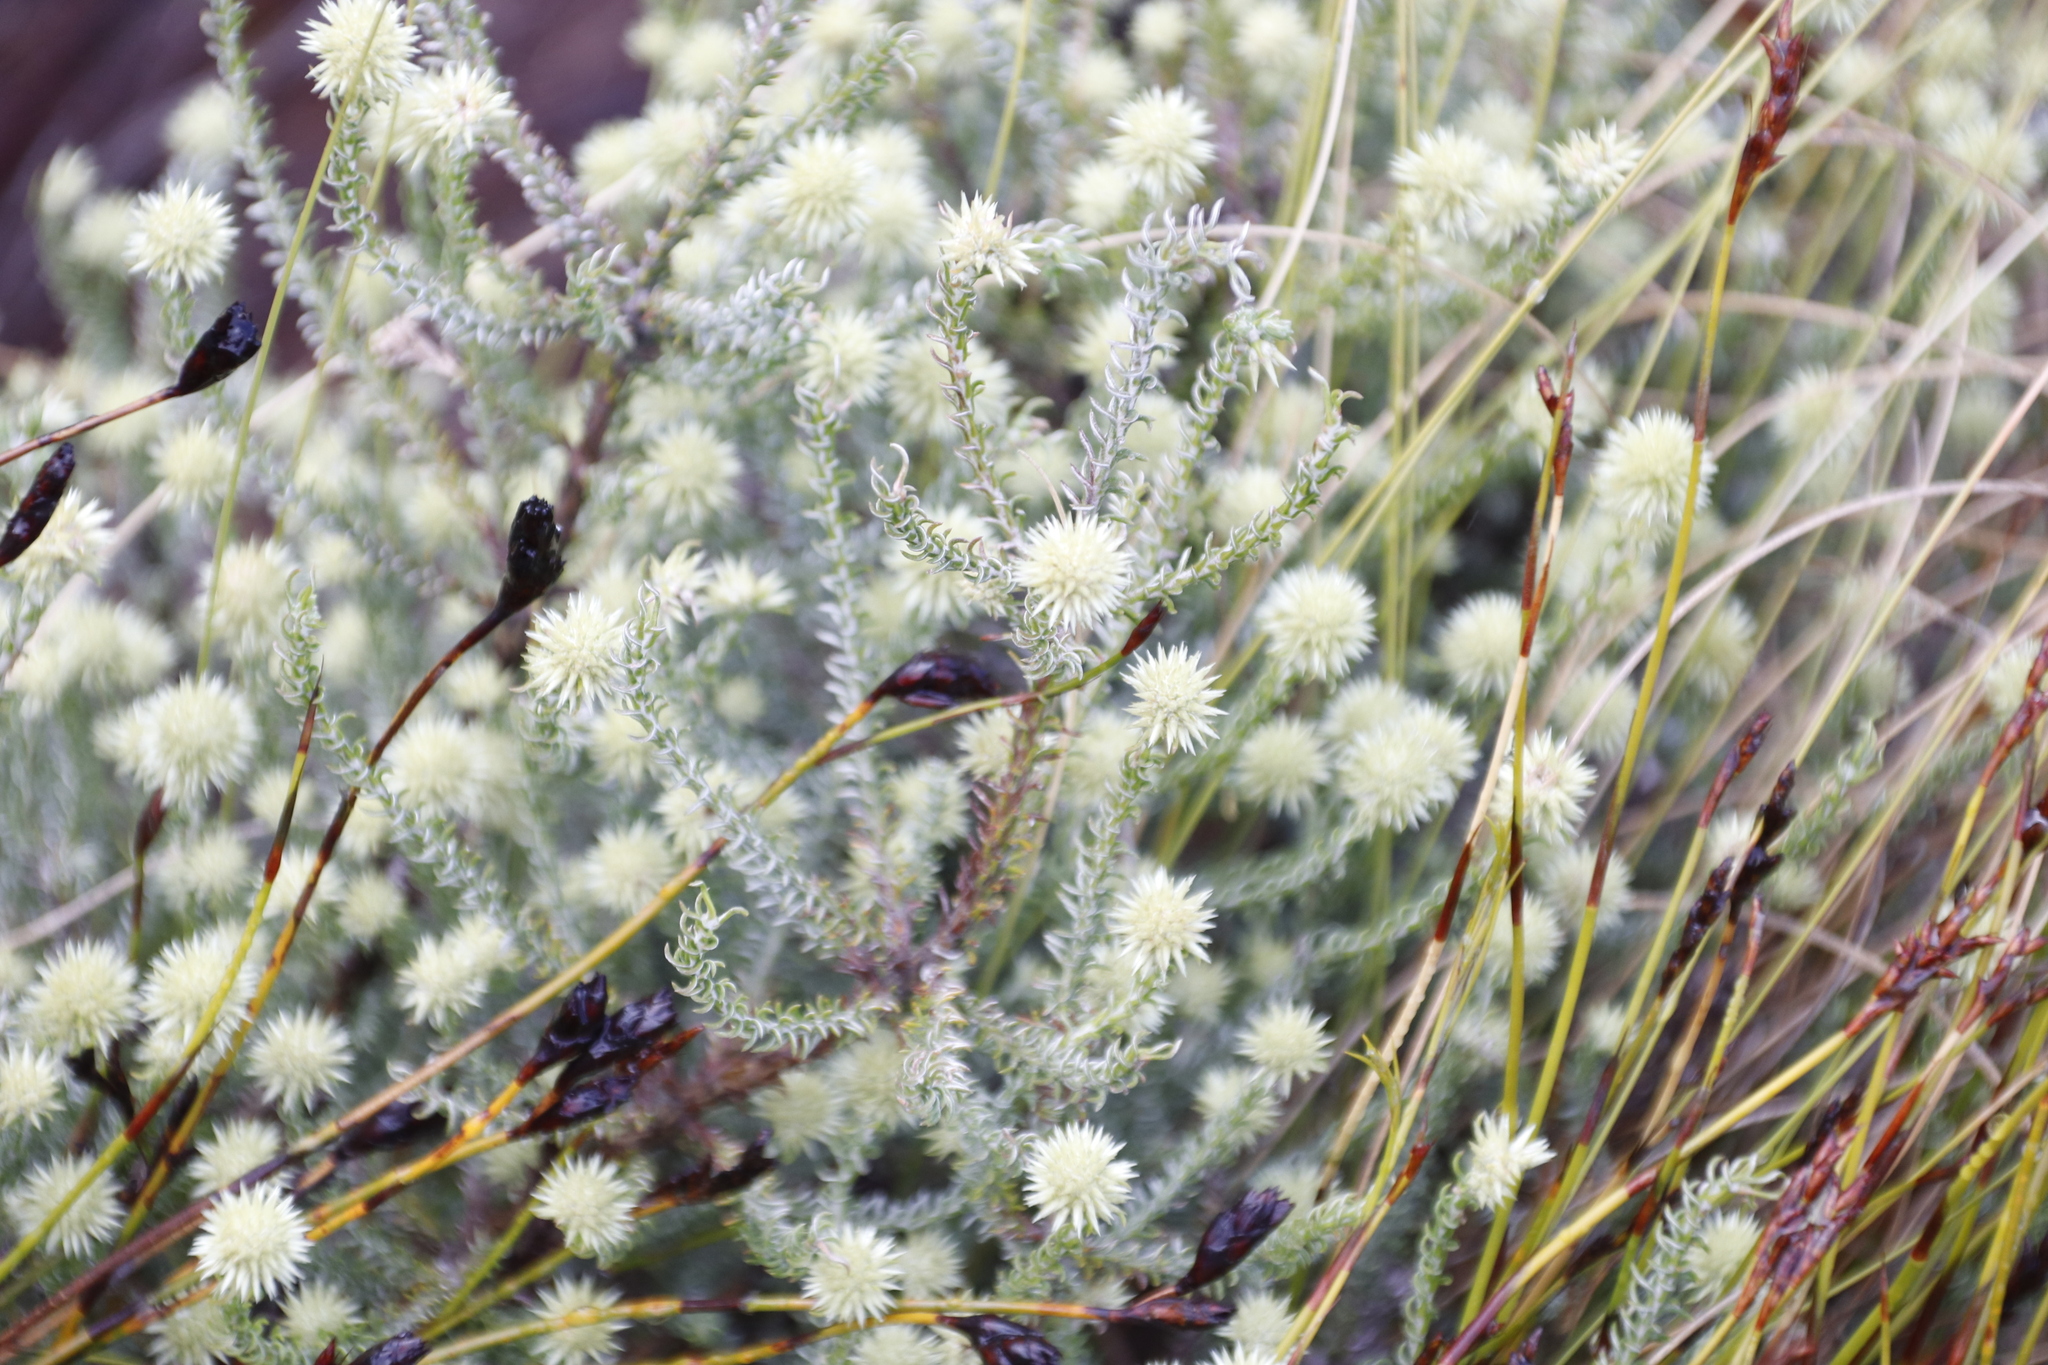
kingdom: Plantae
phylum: Tracheophyta
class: Magnoliopsida
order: Asterales
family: Asteraceae
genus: Seriphium
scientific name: Seriphium spirale
